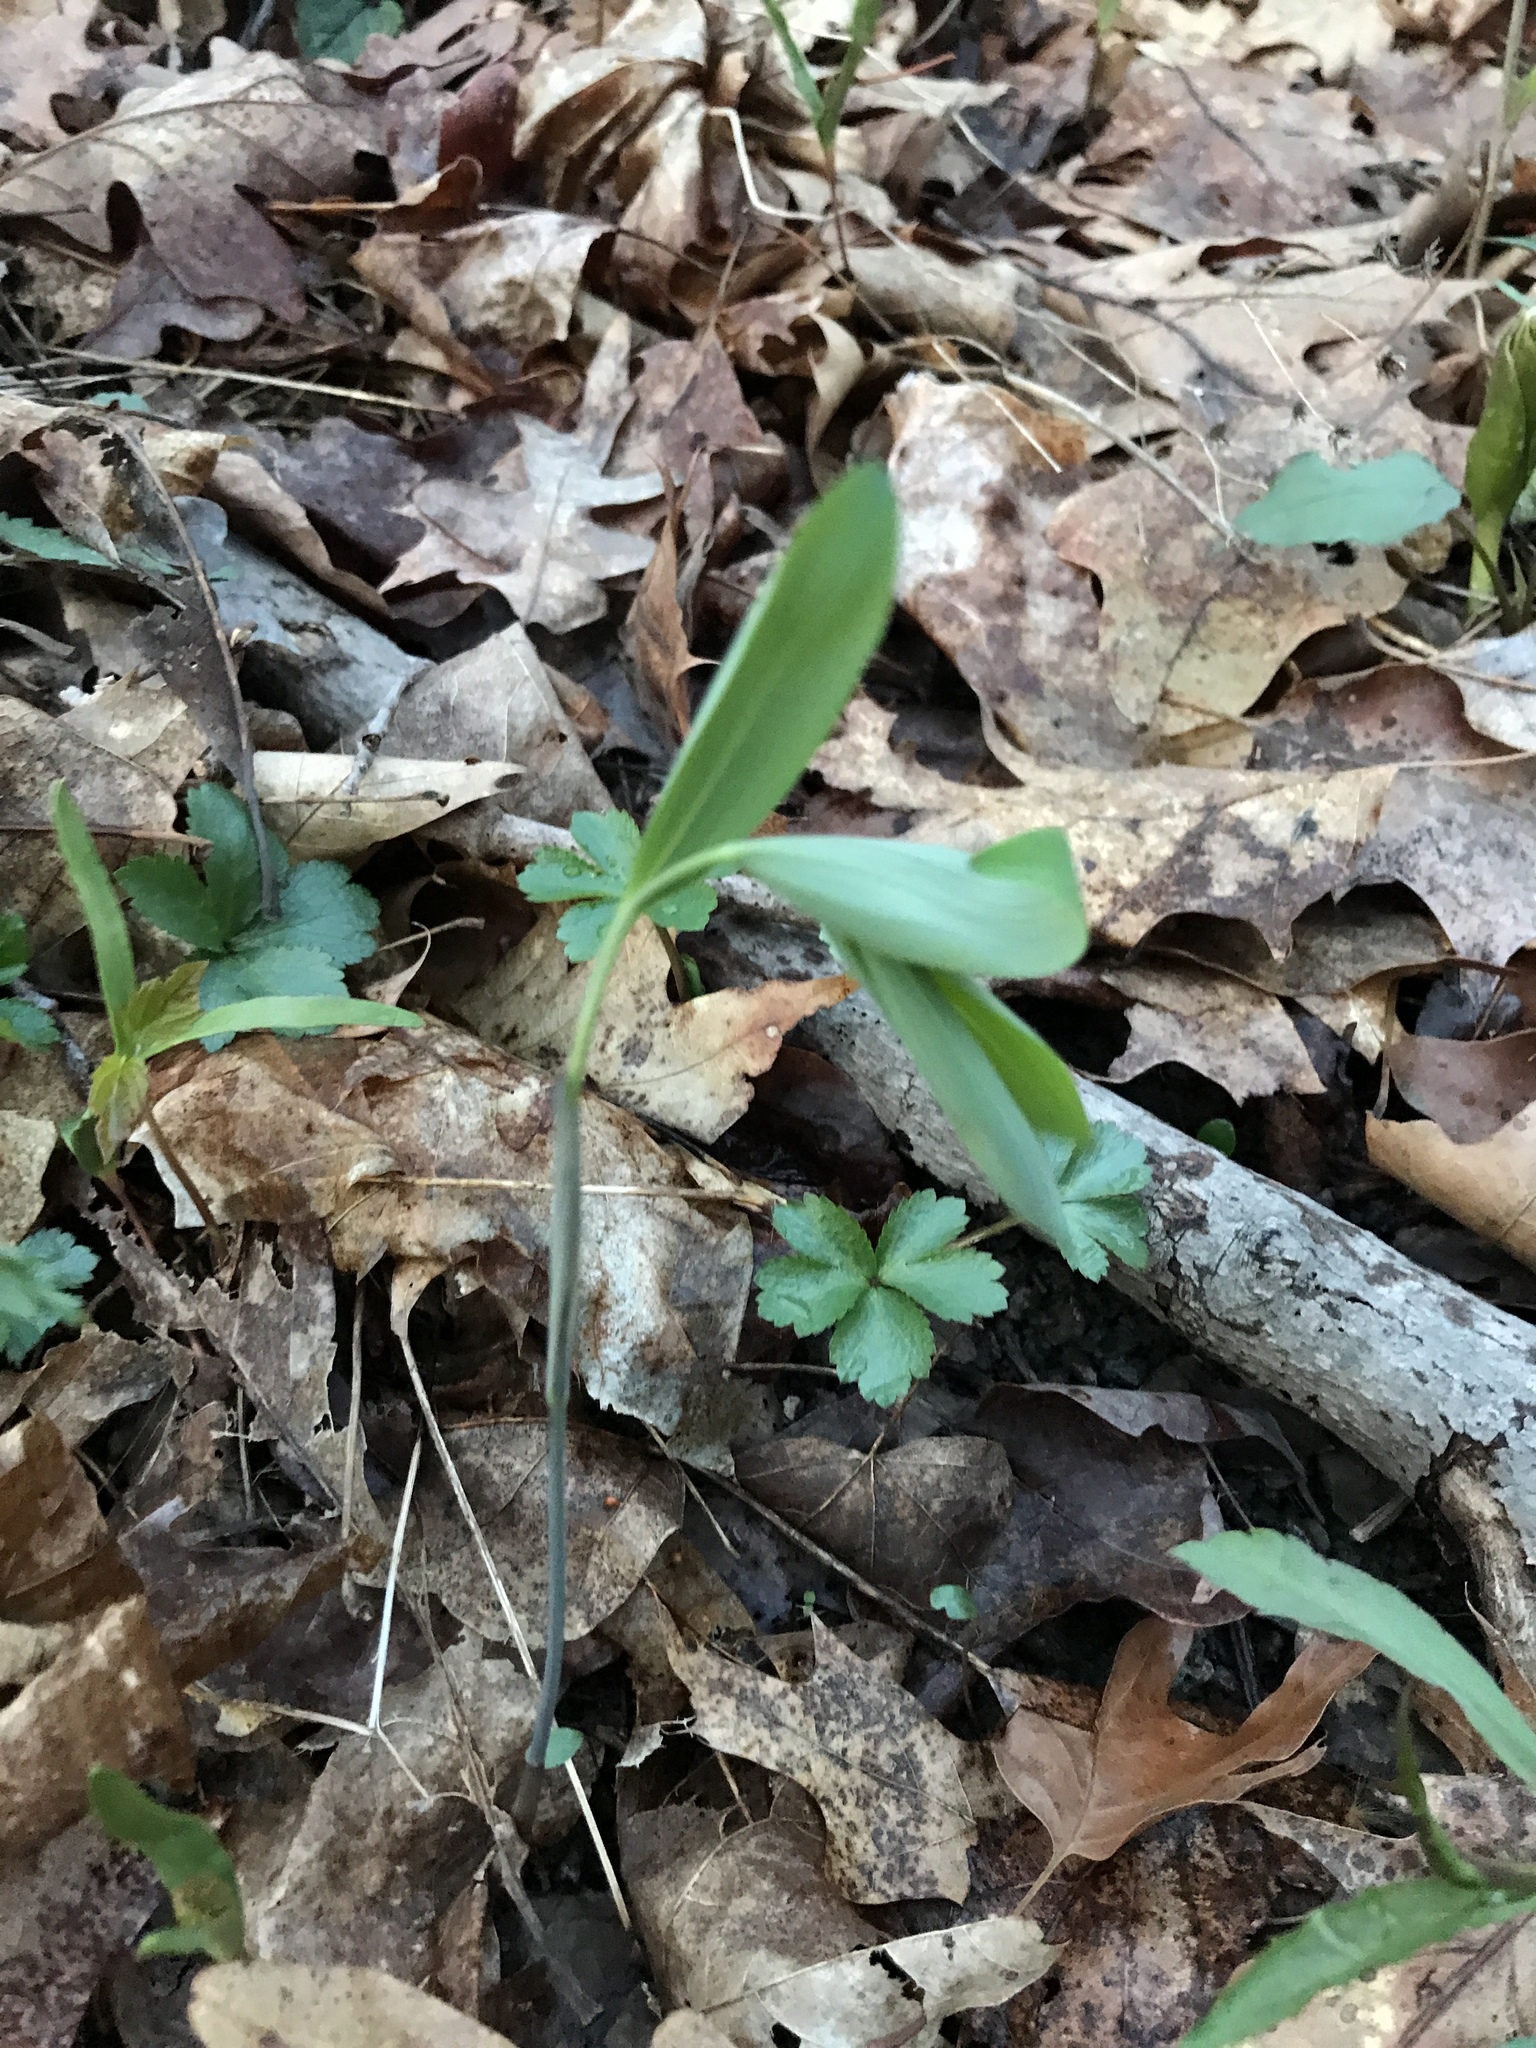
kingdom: Plantae
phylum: Tracheophyta
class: Liliopsida
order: Asparagales
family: Asparagaceae
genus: Polygonatum
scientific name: Polygonatum pubescens
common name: Downy solomon's seal
